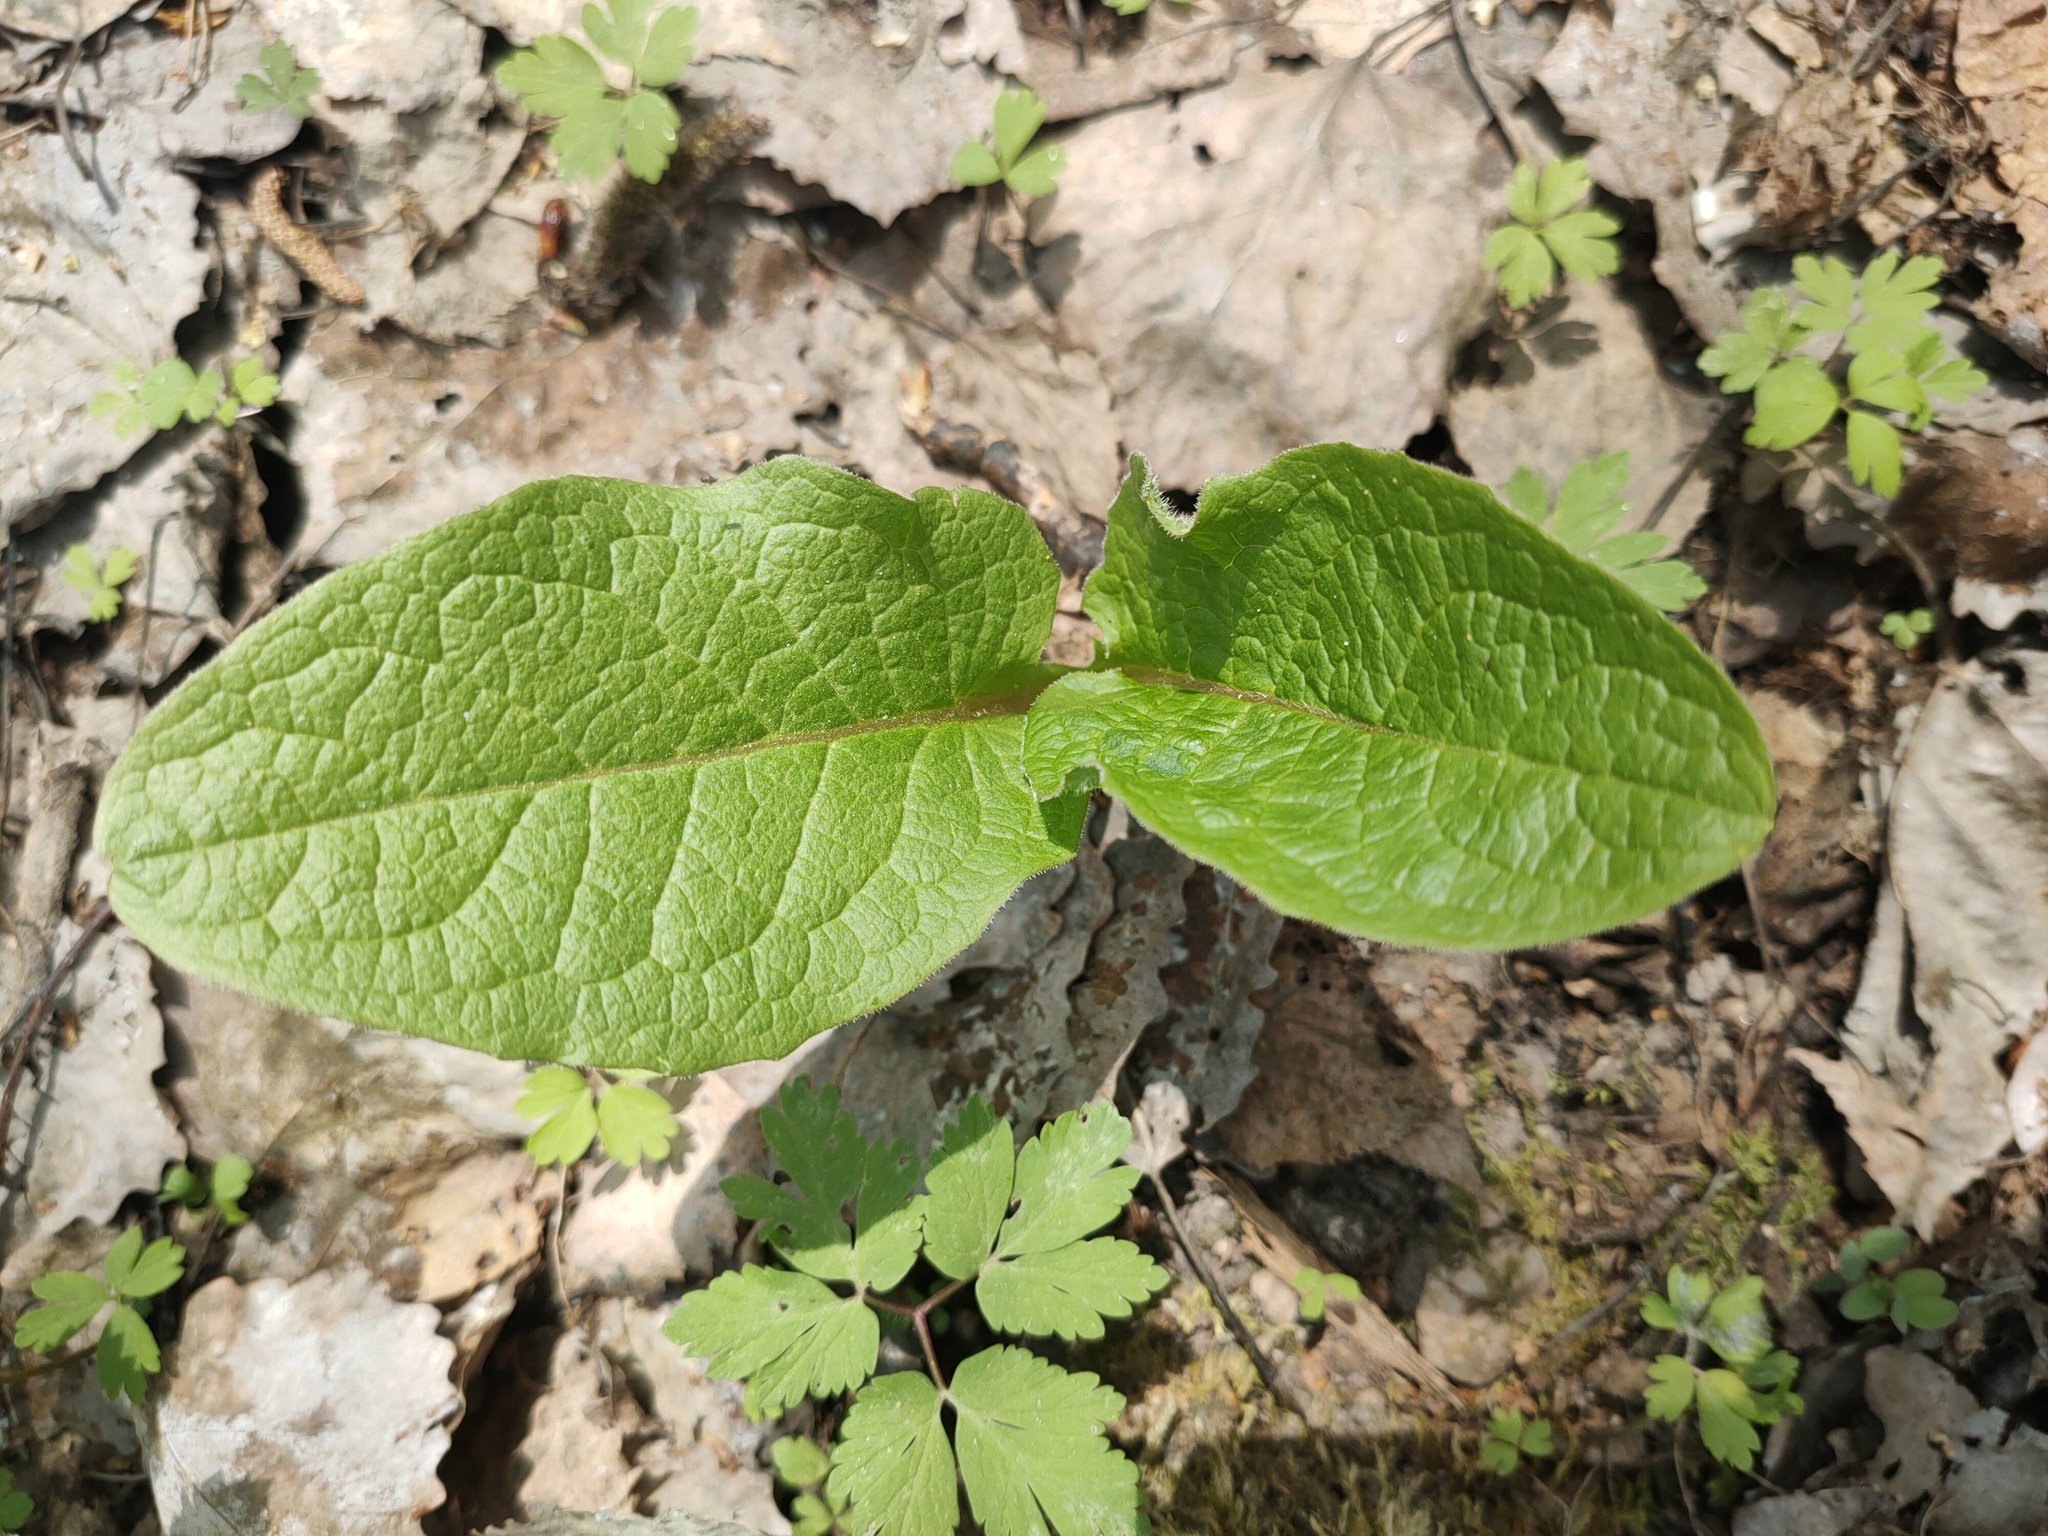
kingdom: Plantae
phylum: Tracheophyta
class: Magnoliopsida
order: Asterales
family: Asteraceae
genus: Crepis
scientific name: Crepis sibirica
